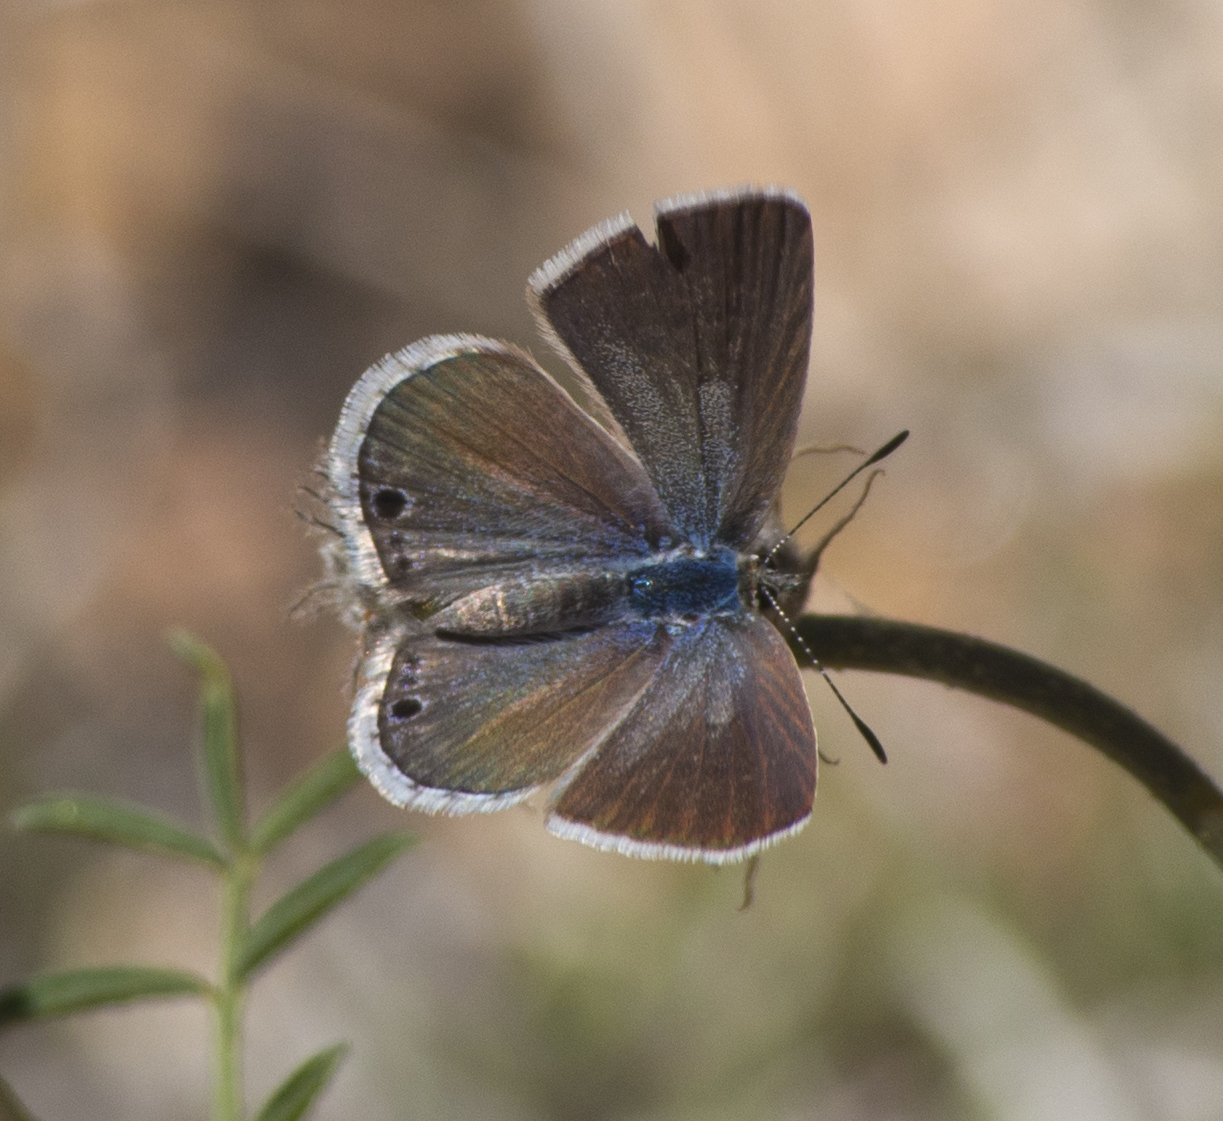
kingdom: Animalia
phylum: Arthropoda
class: Insecta
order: Lepidoptera
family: Lycaenidae
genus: Echinargus
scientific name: Echinargus isola
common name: Reakirt's blue
